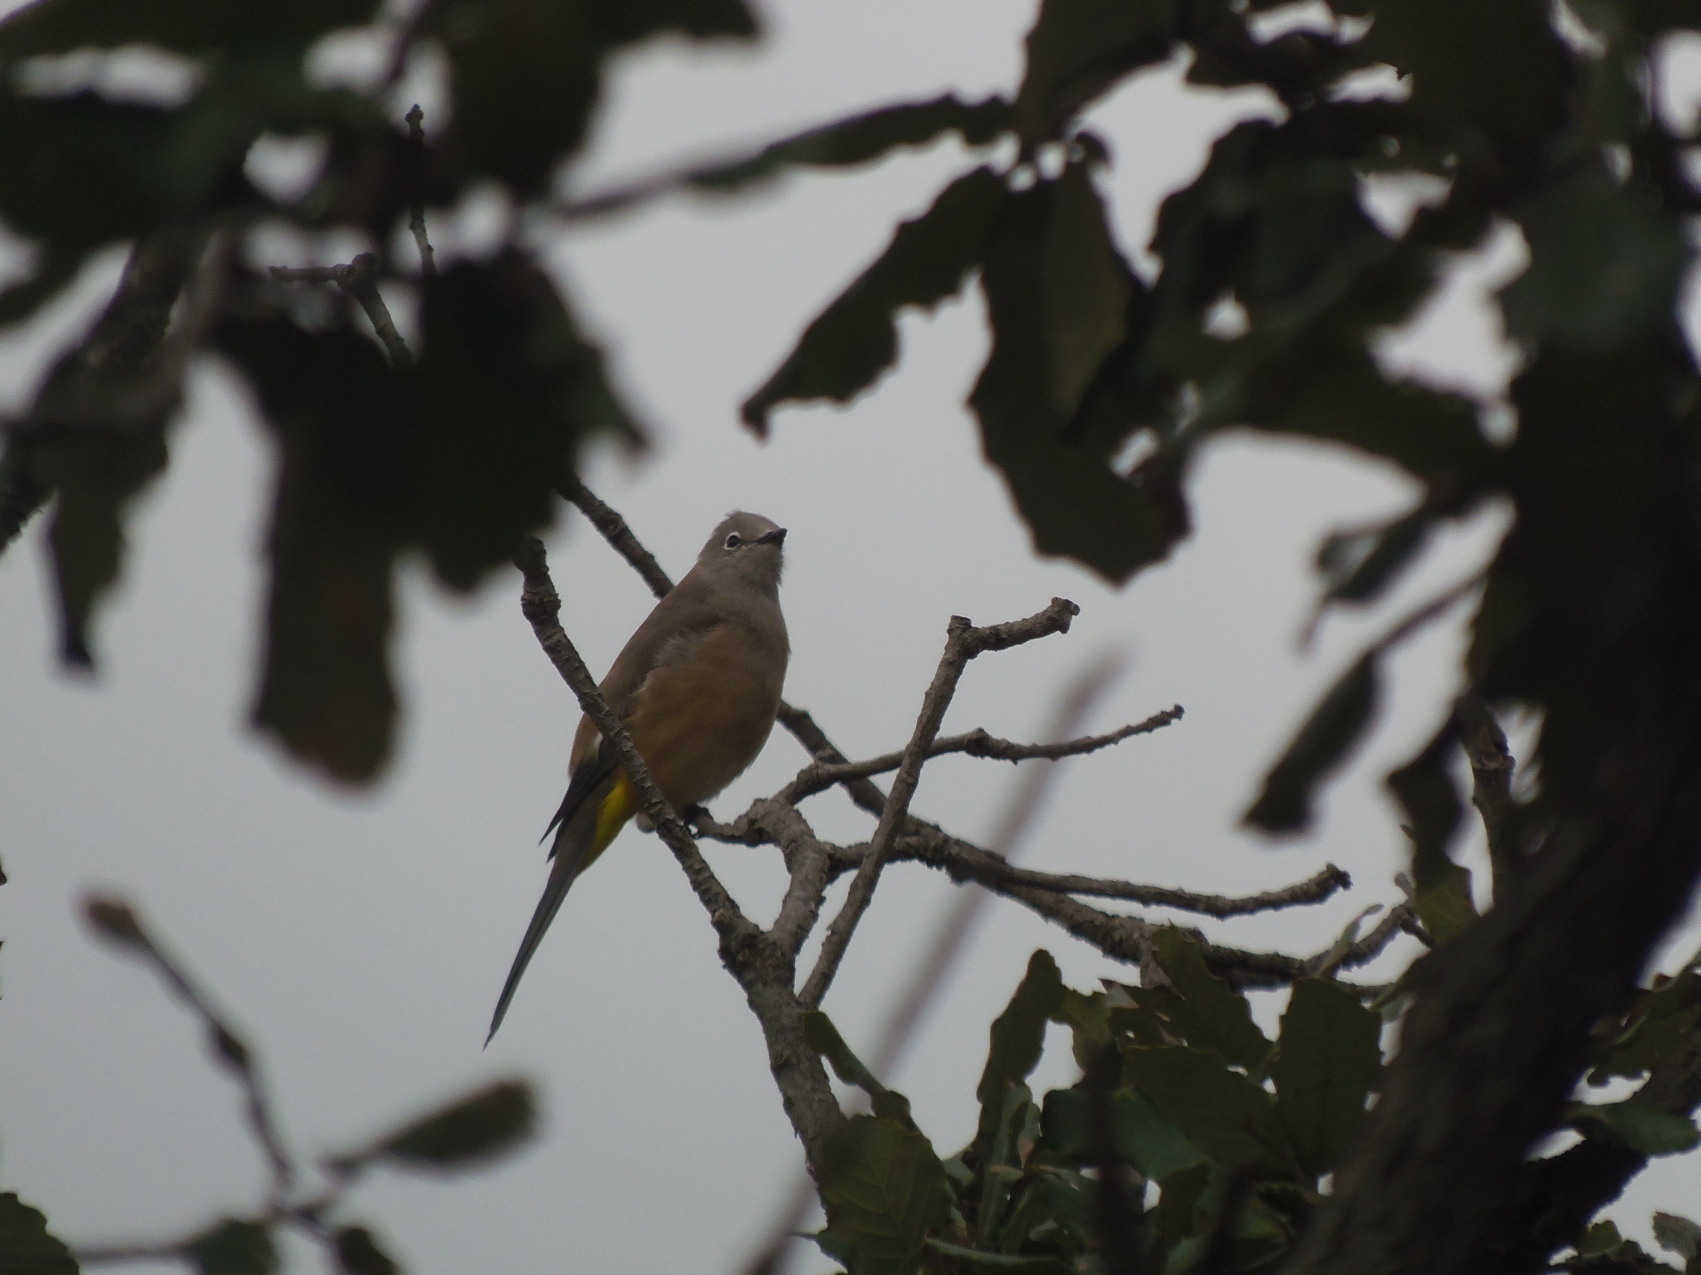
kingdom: Animalia
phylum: Chordata
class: Aves
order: Passeriformes
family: Ptilogonatidae
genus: Ptilogonys
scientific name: Ptilogonys cinereus
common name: Gray silky-flycatcher
